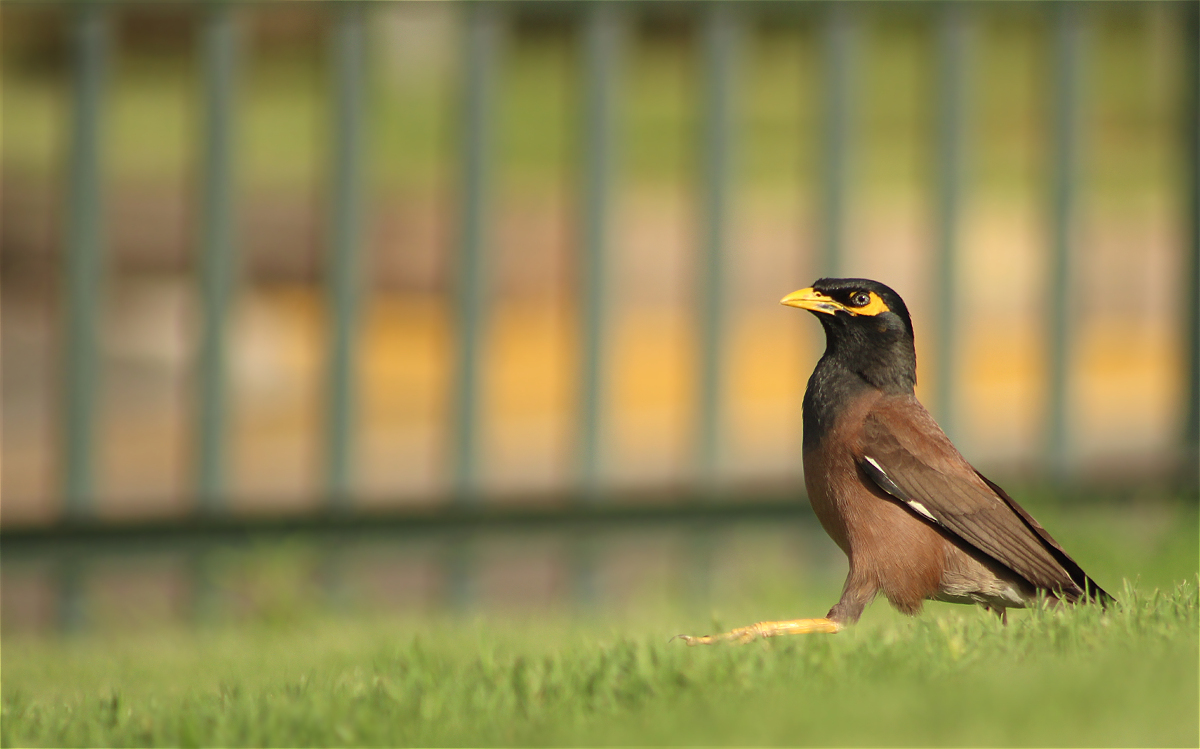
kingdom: Animalia
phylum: Chordata
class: Aves
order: Passeriformes
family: Sturnidae
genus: Acridotheres
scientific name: Acridotheres tristis
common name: Common myna
